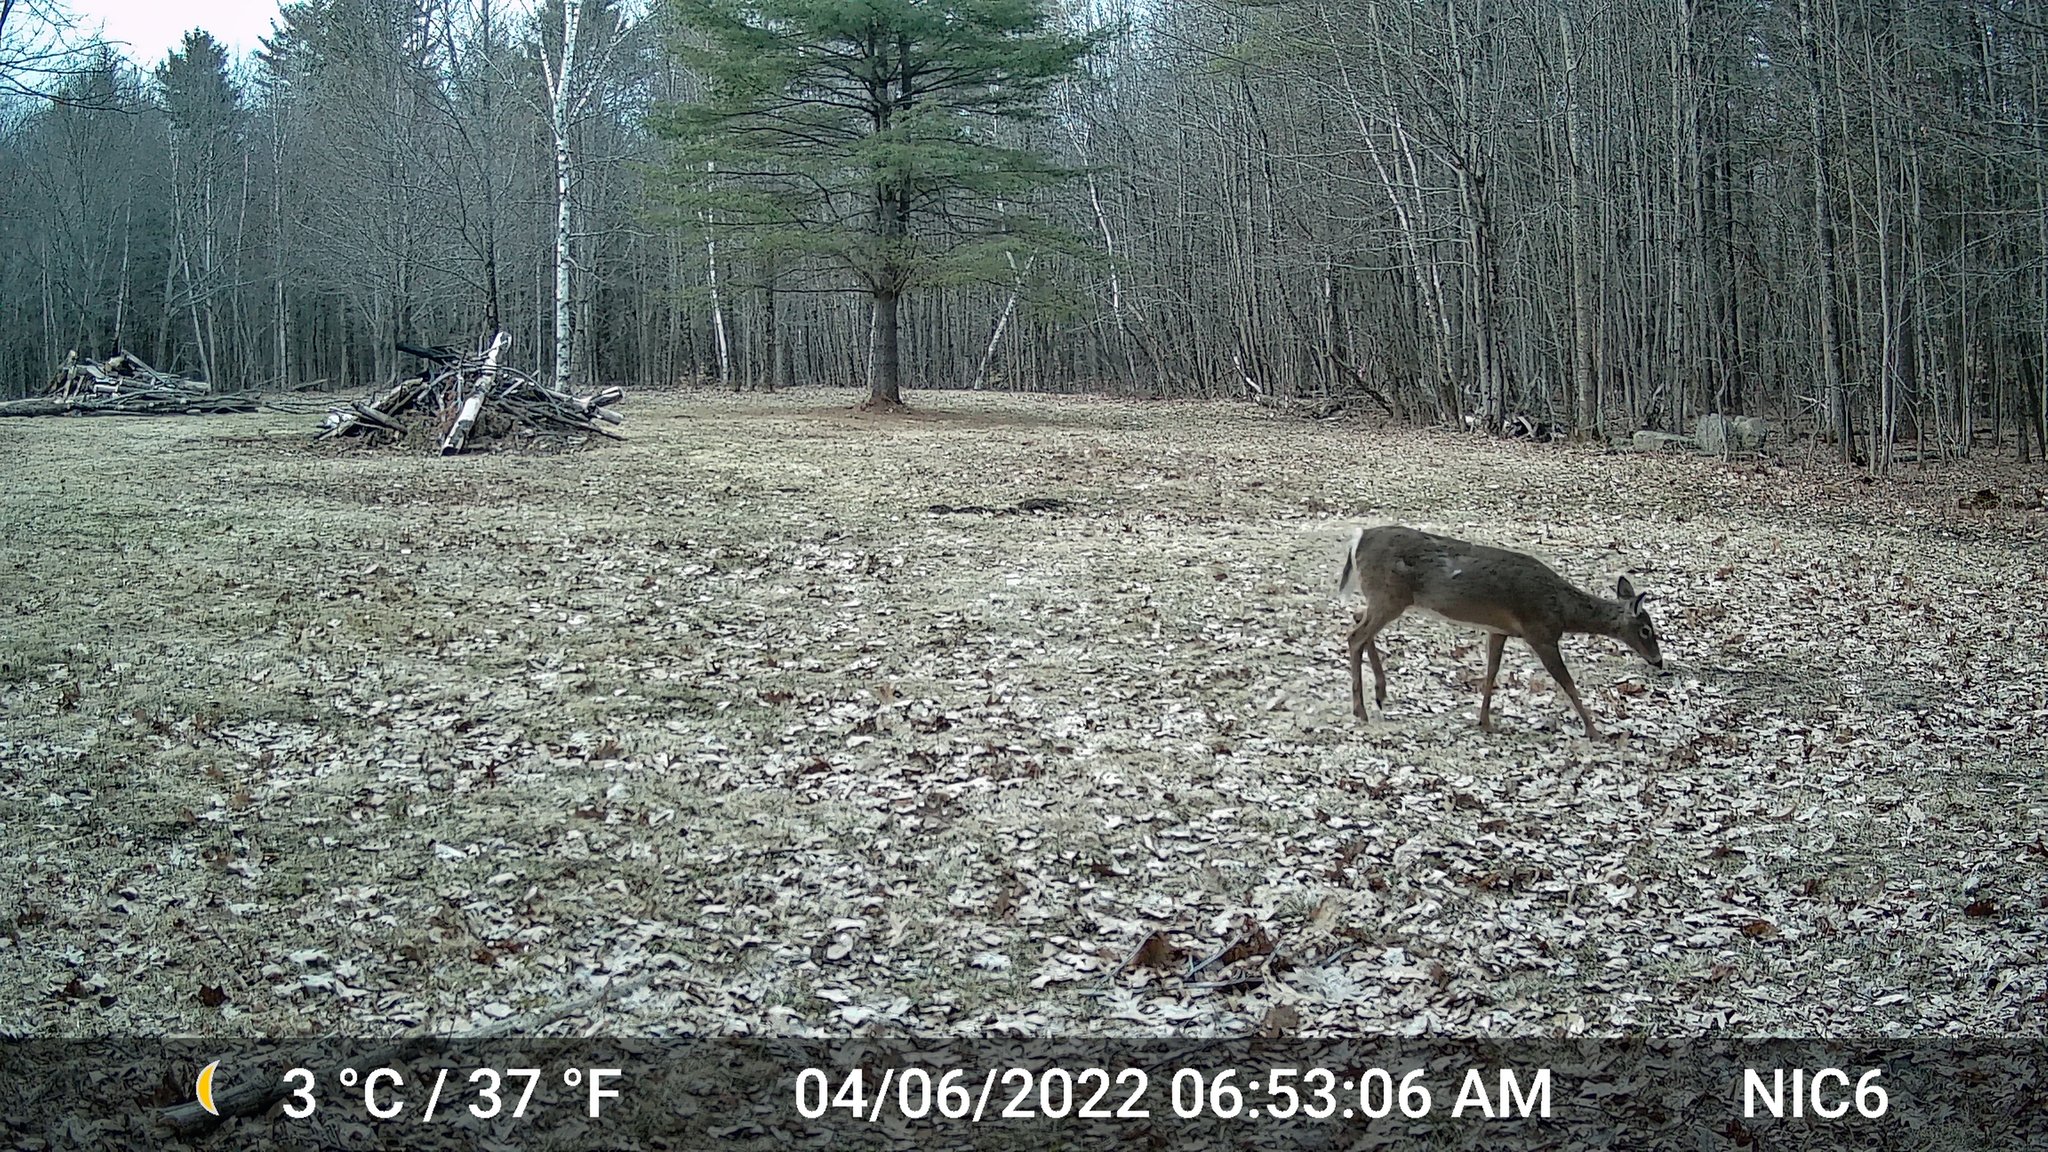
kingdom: Animalia
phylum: Chordata
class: Mammalia
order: Artiodactyla
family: Cervidae
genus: Odocoileus
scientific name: Odocoileus virginianus
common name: White-tailed deer
